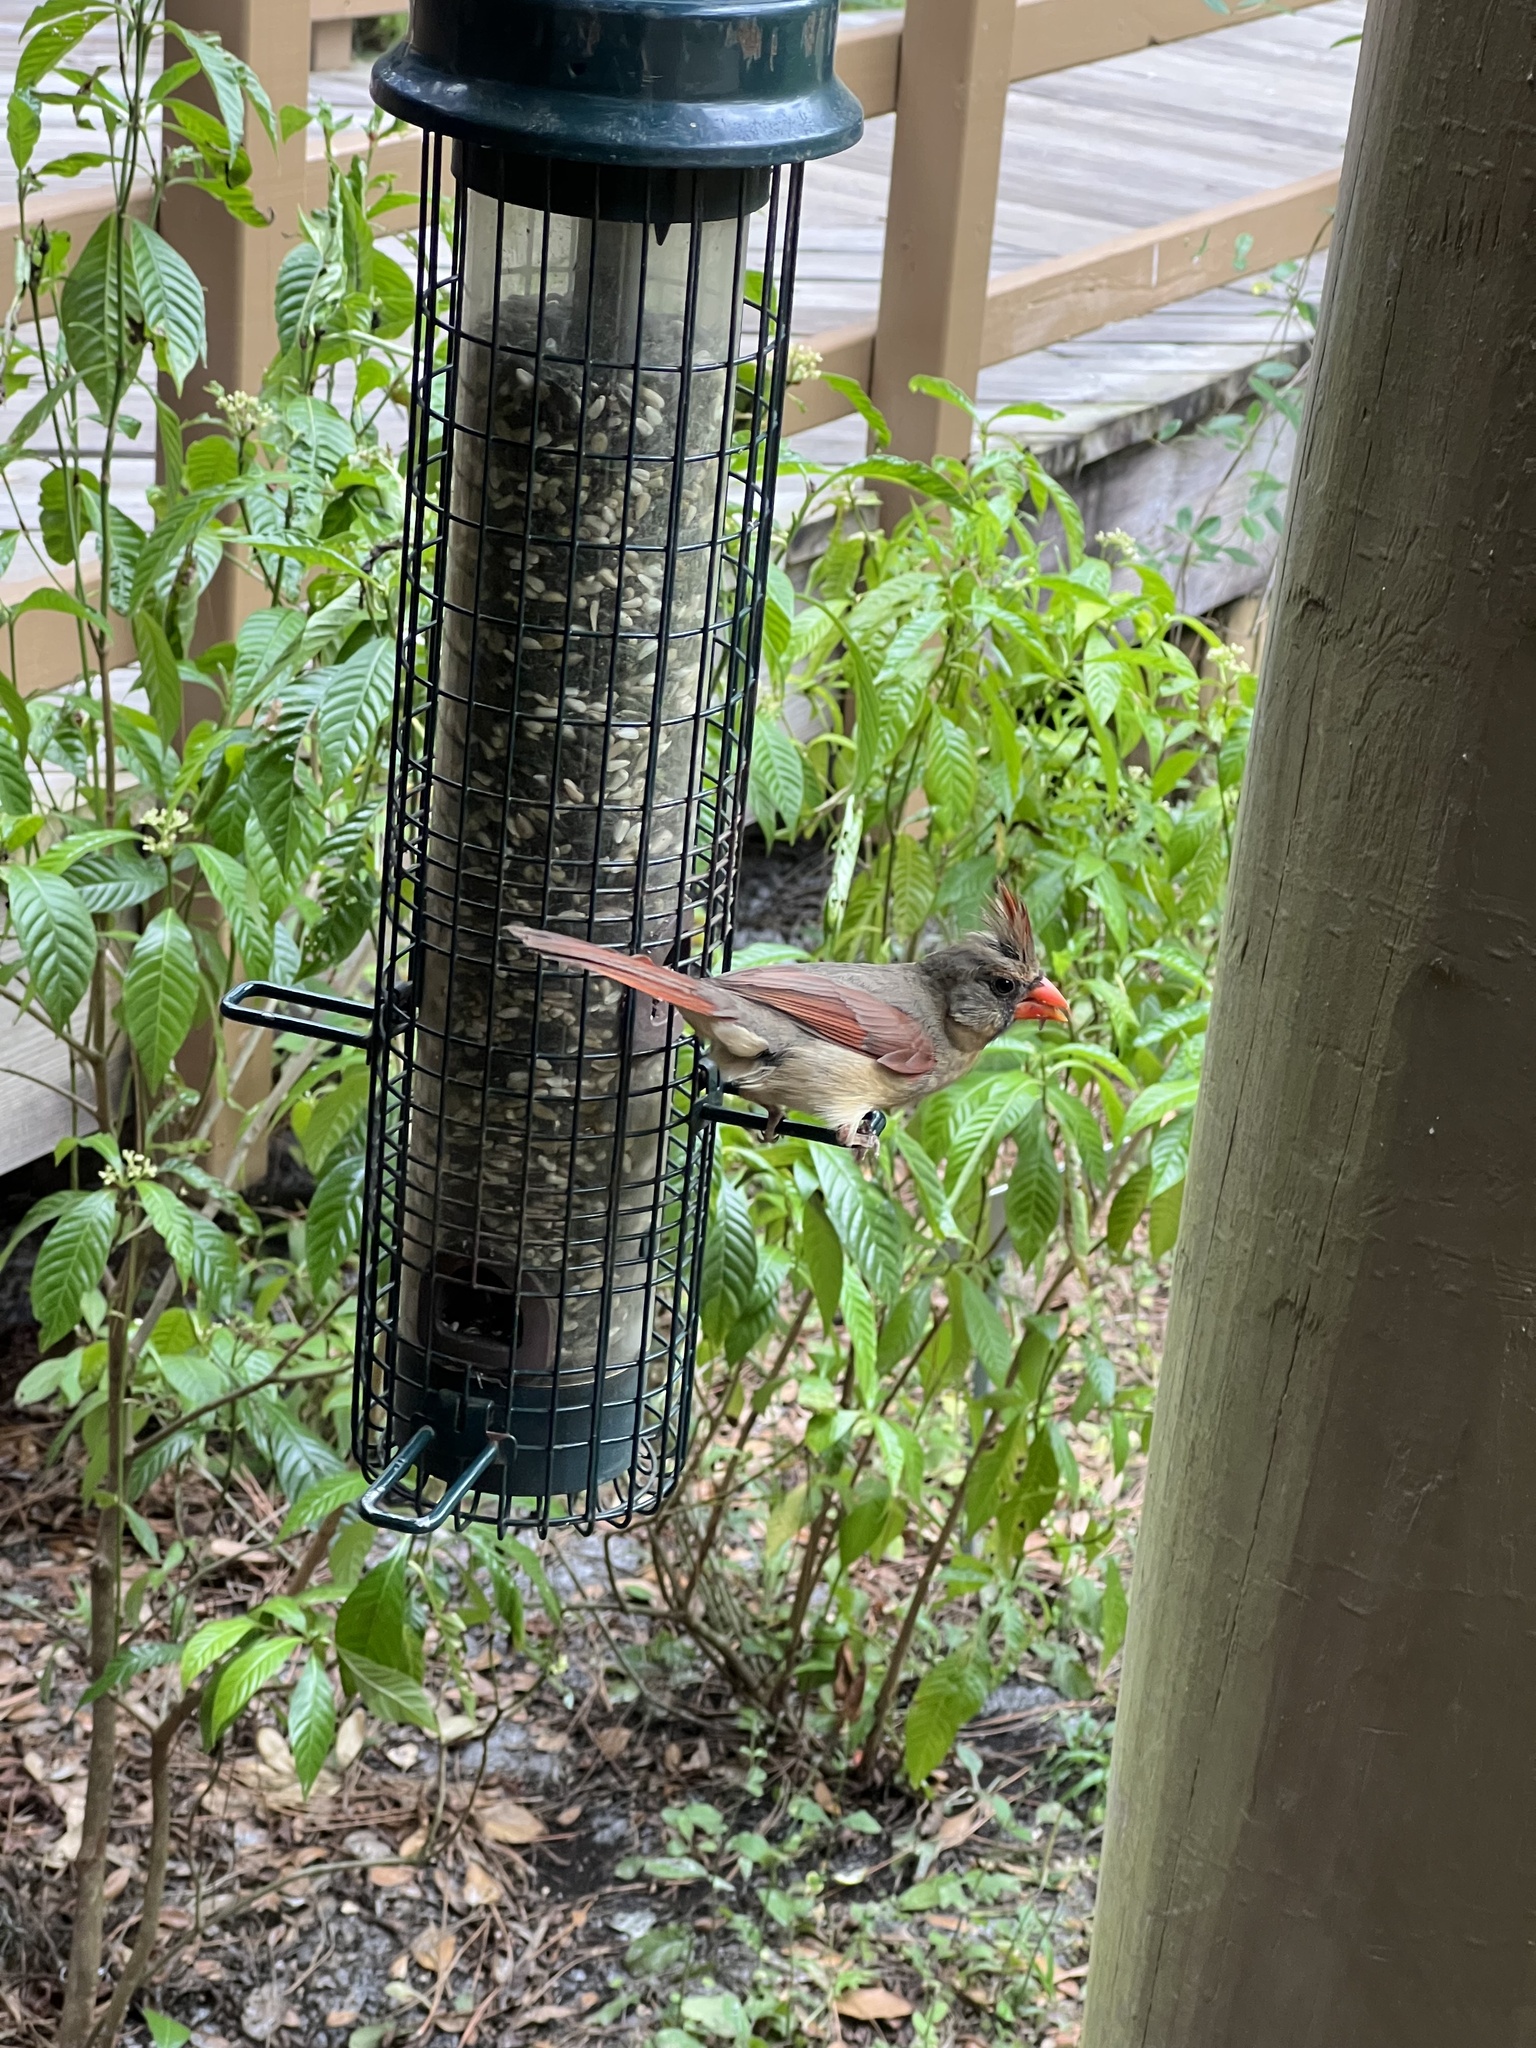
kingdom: Animalia
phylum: Chordata
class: Aves
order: Passeriformes
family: Cardinalidae
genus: Cardinalis
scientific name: Cardinalis cardinalis
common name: Northern cardinal
